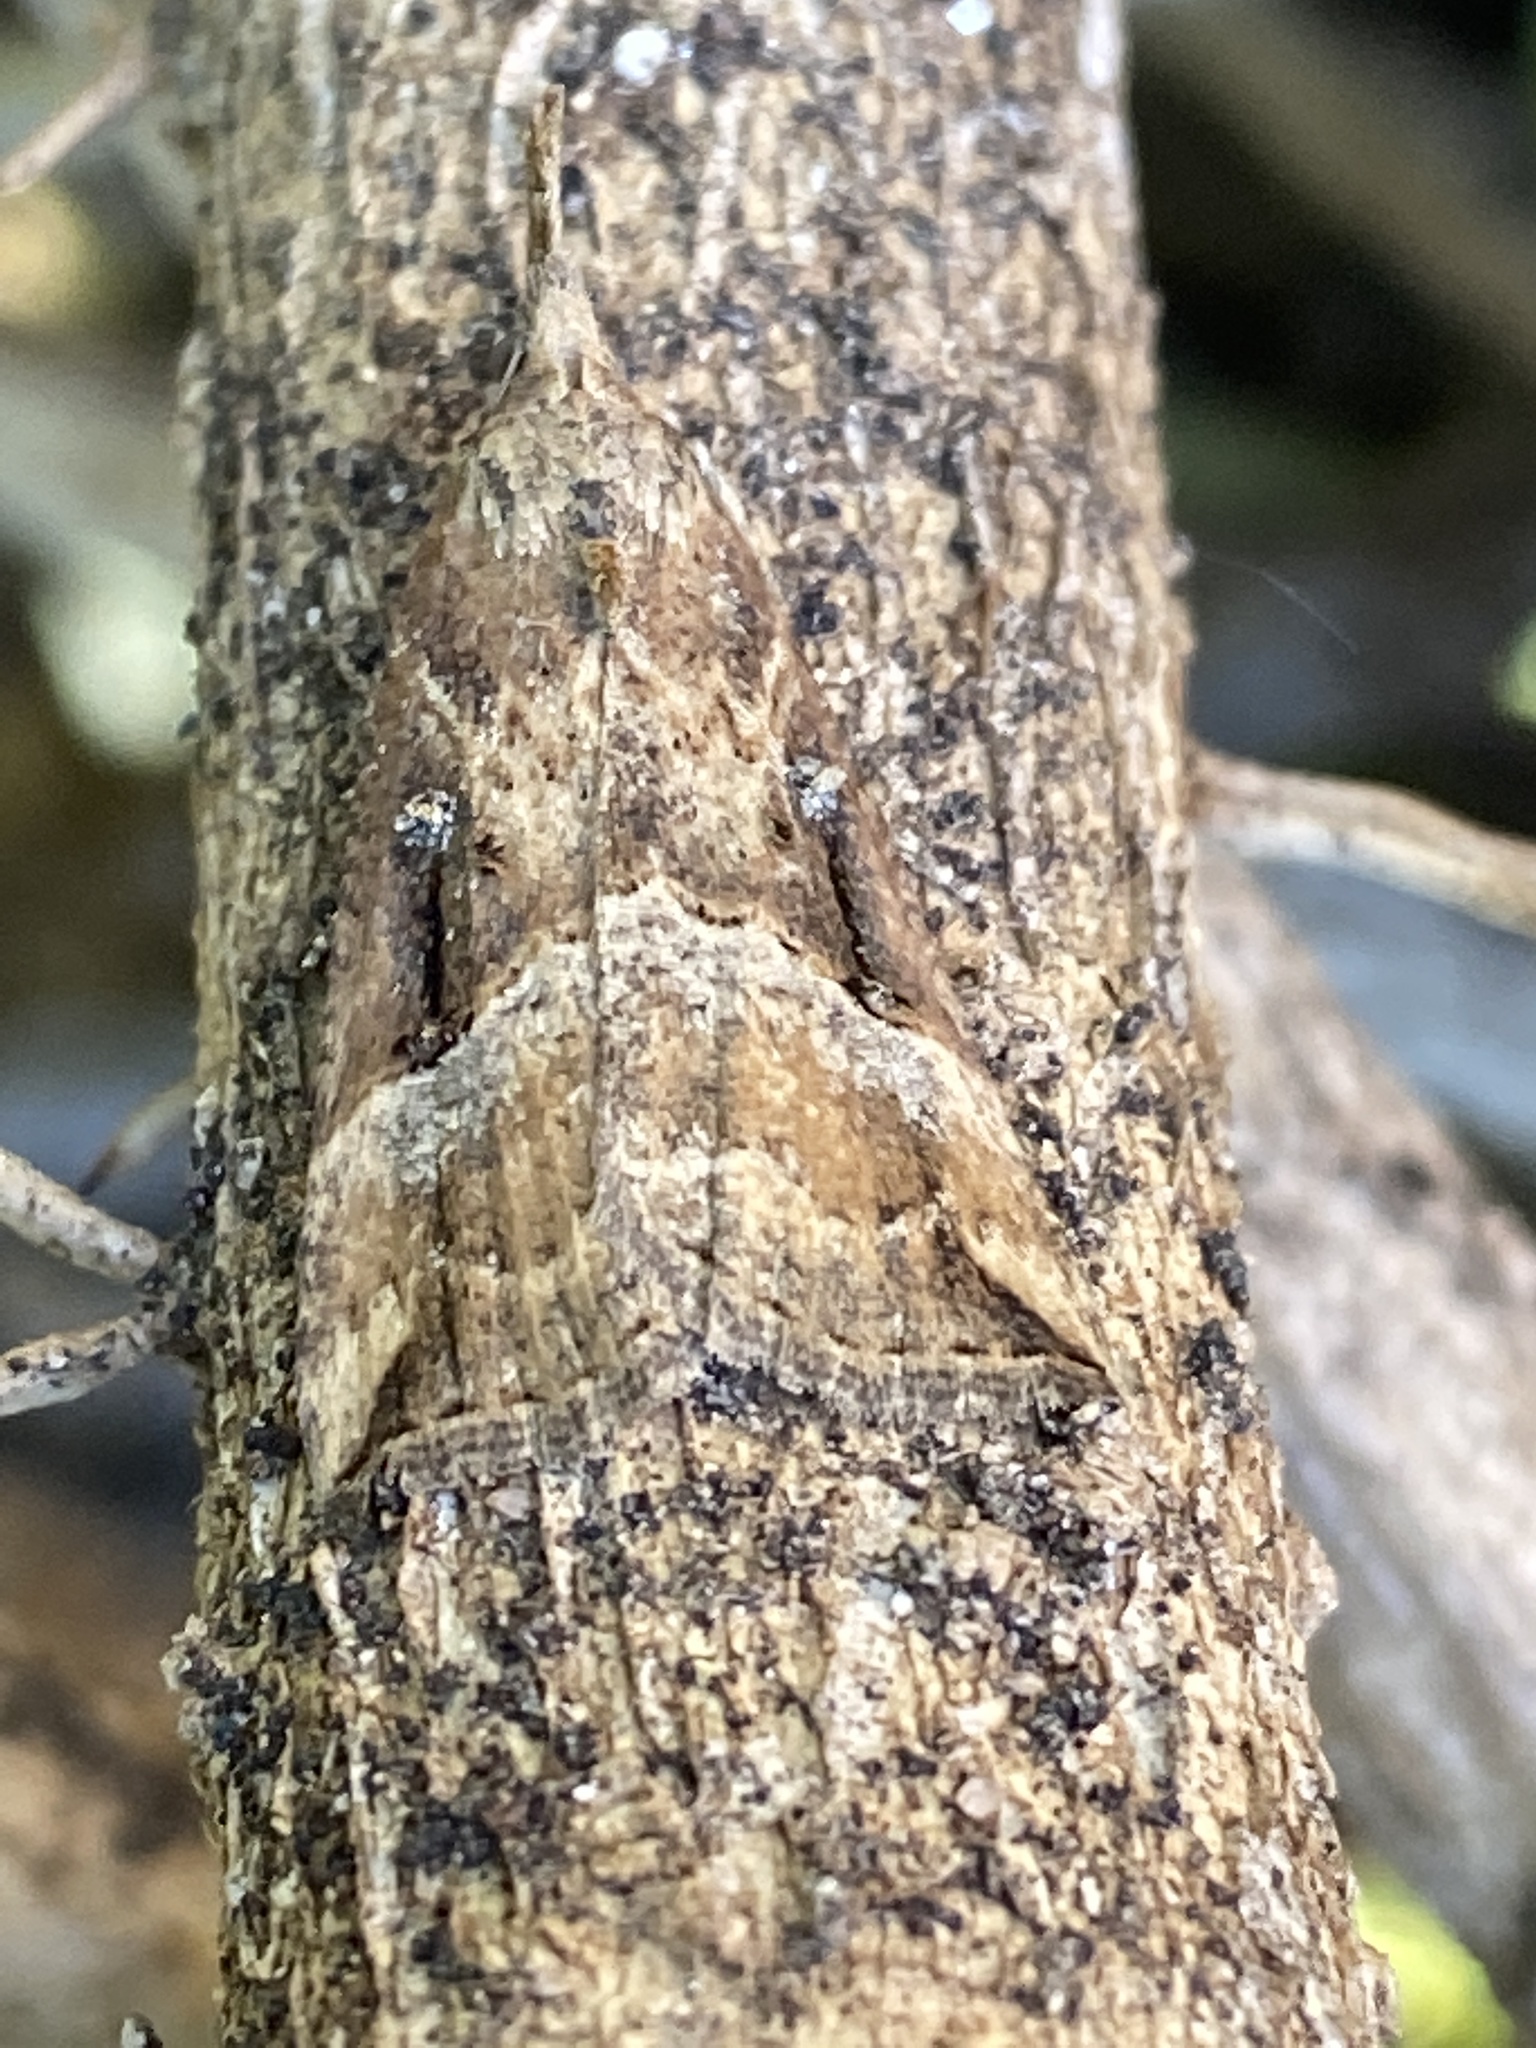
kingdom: Animalia
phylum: Arthropoda
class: Insecta
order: Lepidoptera
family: Erebidae
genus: Hypena
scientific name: Hypena rostralis
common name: Buttoned snout
